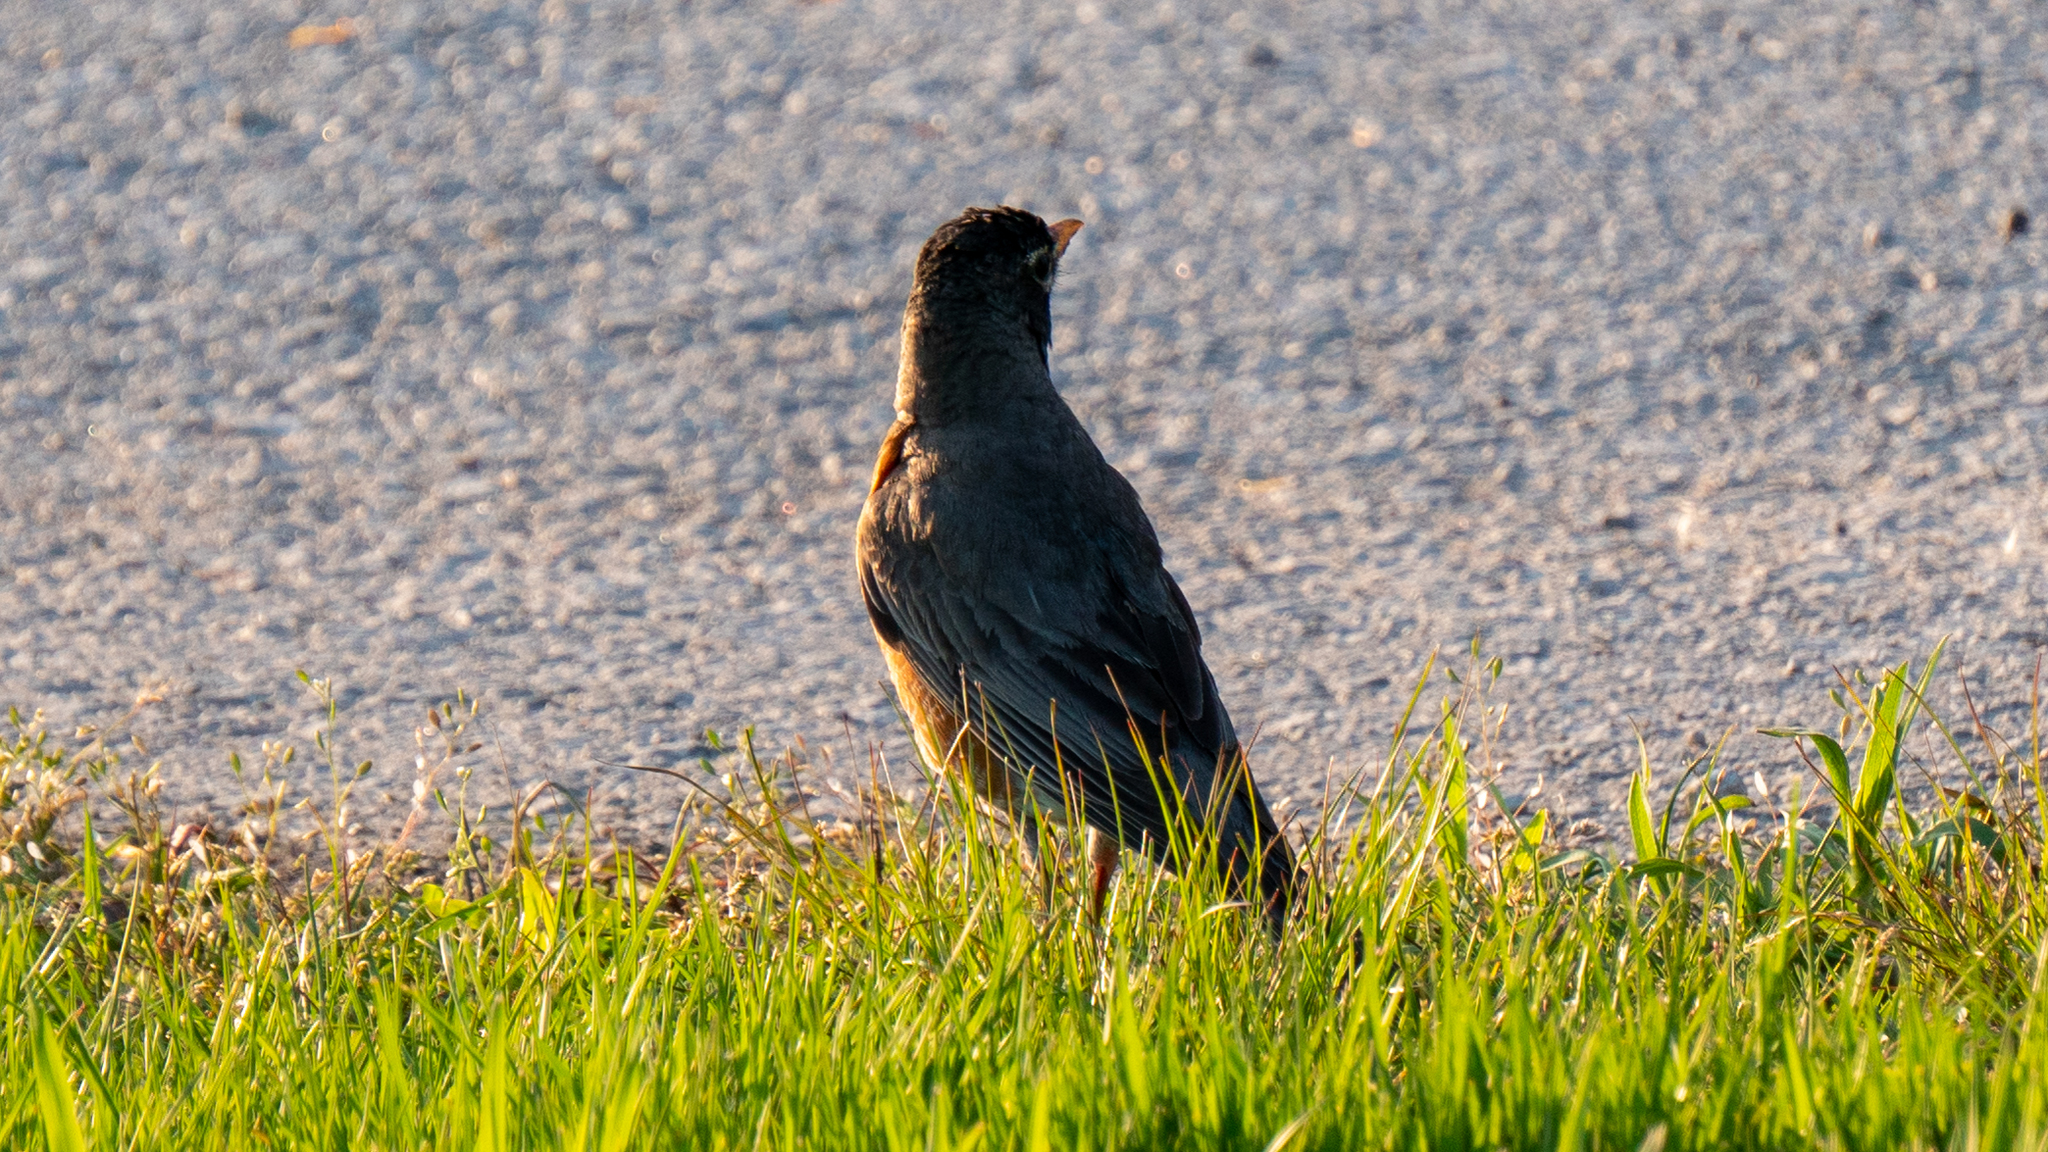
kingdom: Animalia
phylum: Chordata
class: Aves
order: Passeriformes
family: Turdidae
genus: Turdus
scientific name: Turdus migratorius
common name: American robin
